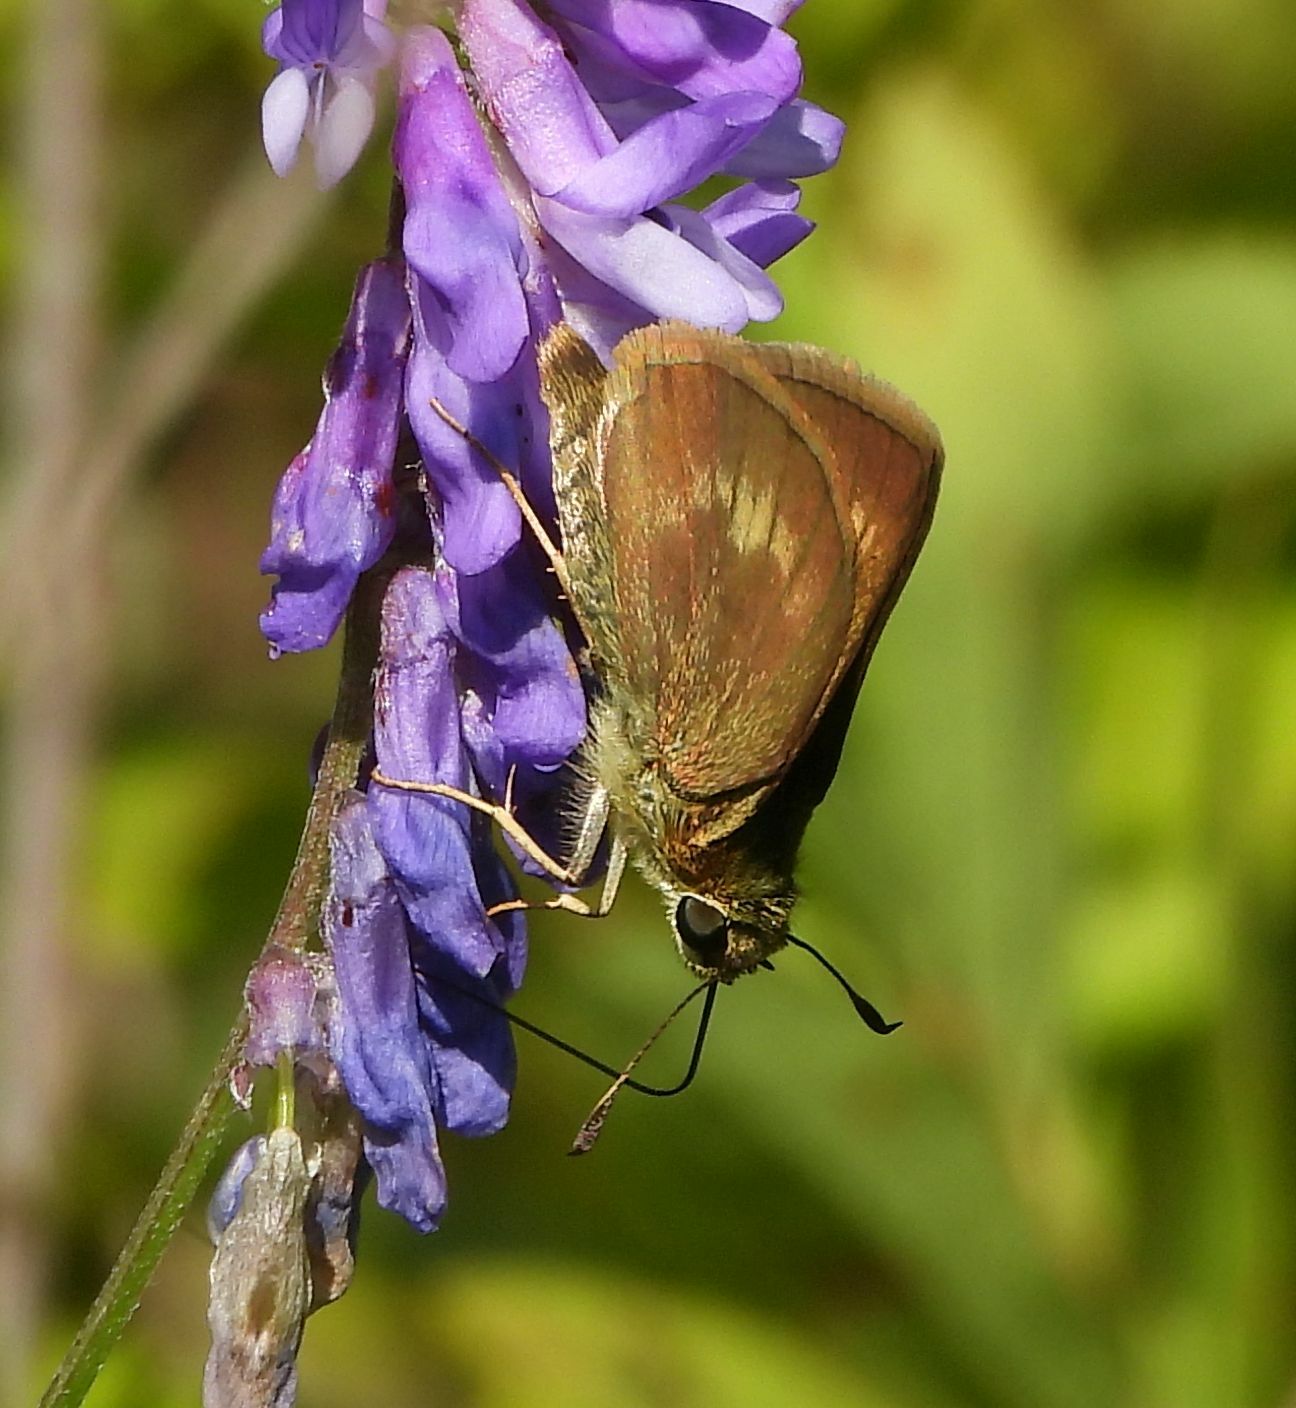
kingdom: Animalia
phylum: Arthropoda
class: Insecta
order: Lepidoptera
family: Hesperiidae
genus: Polites
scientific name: Polites egeremet
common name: Northern broken-dash
